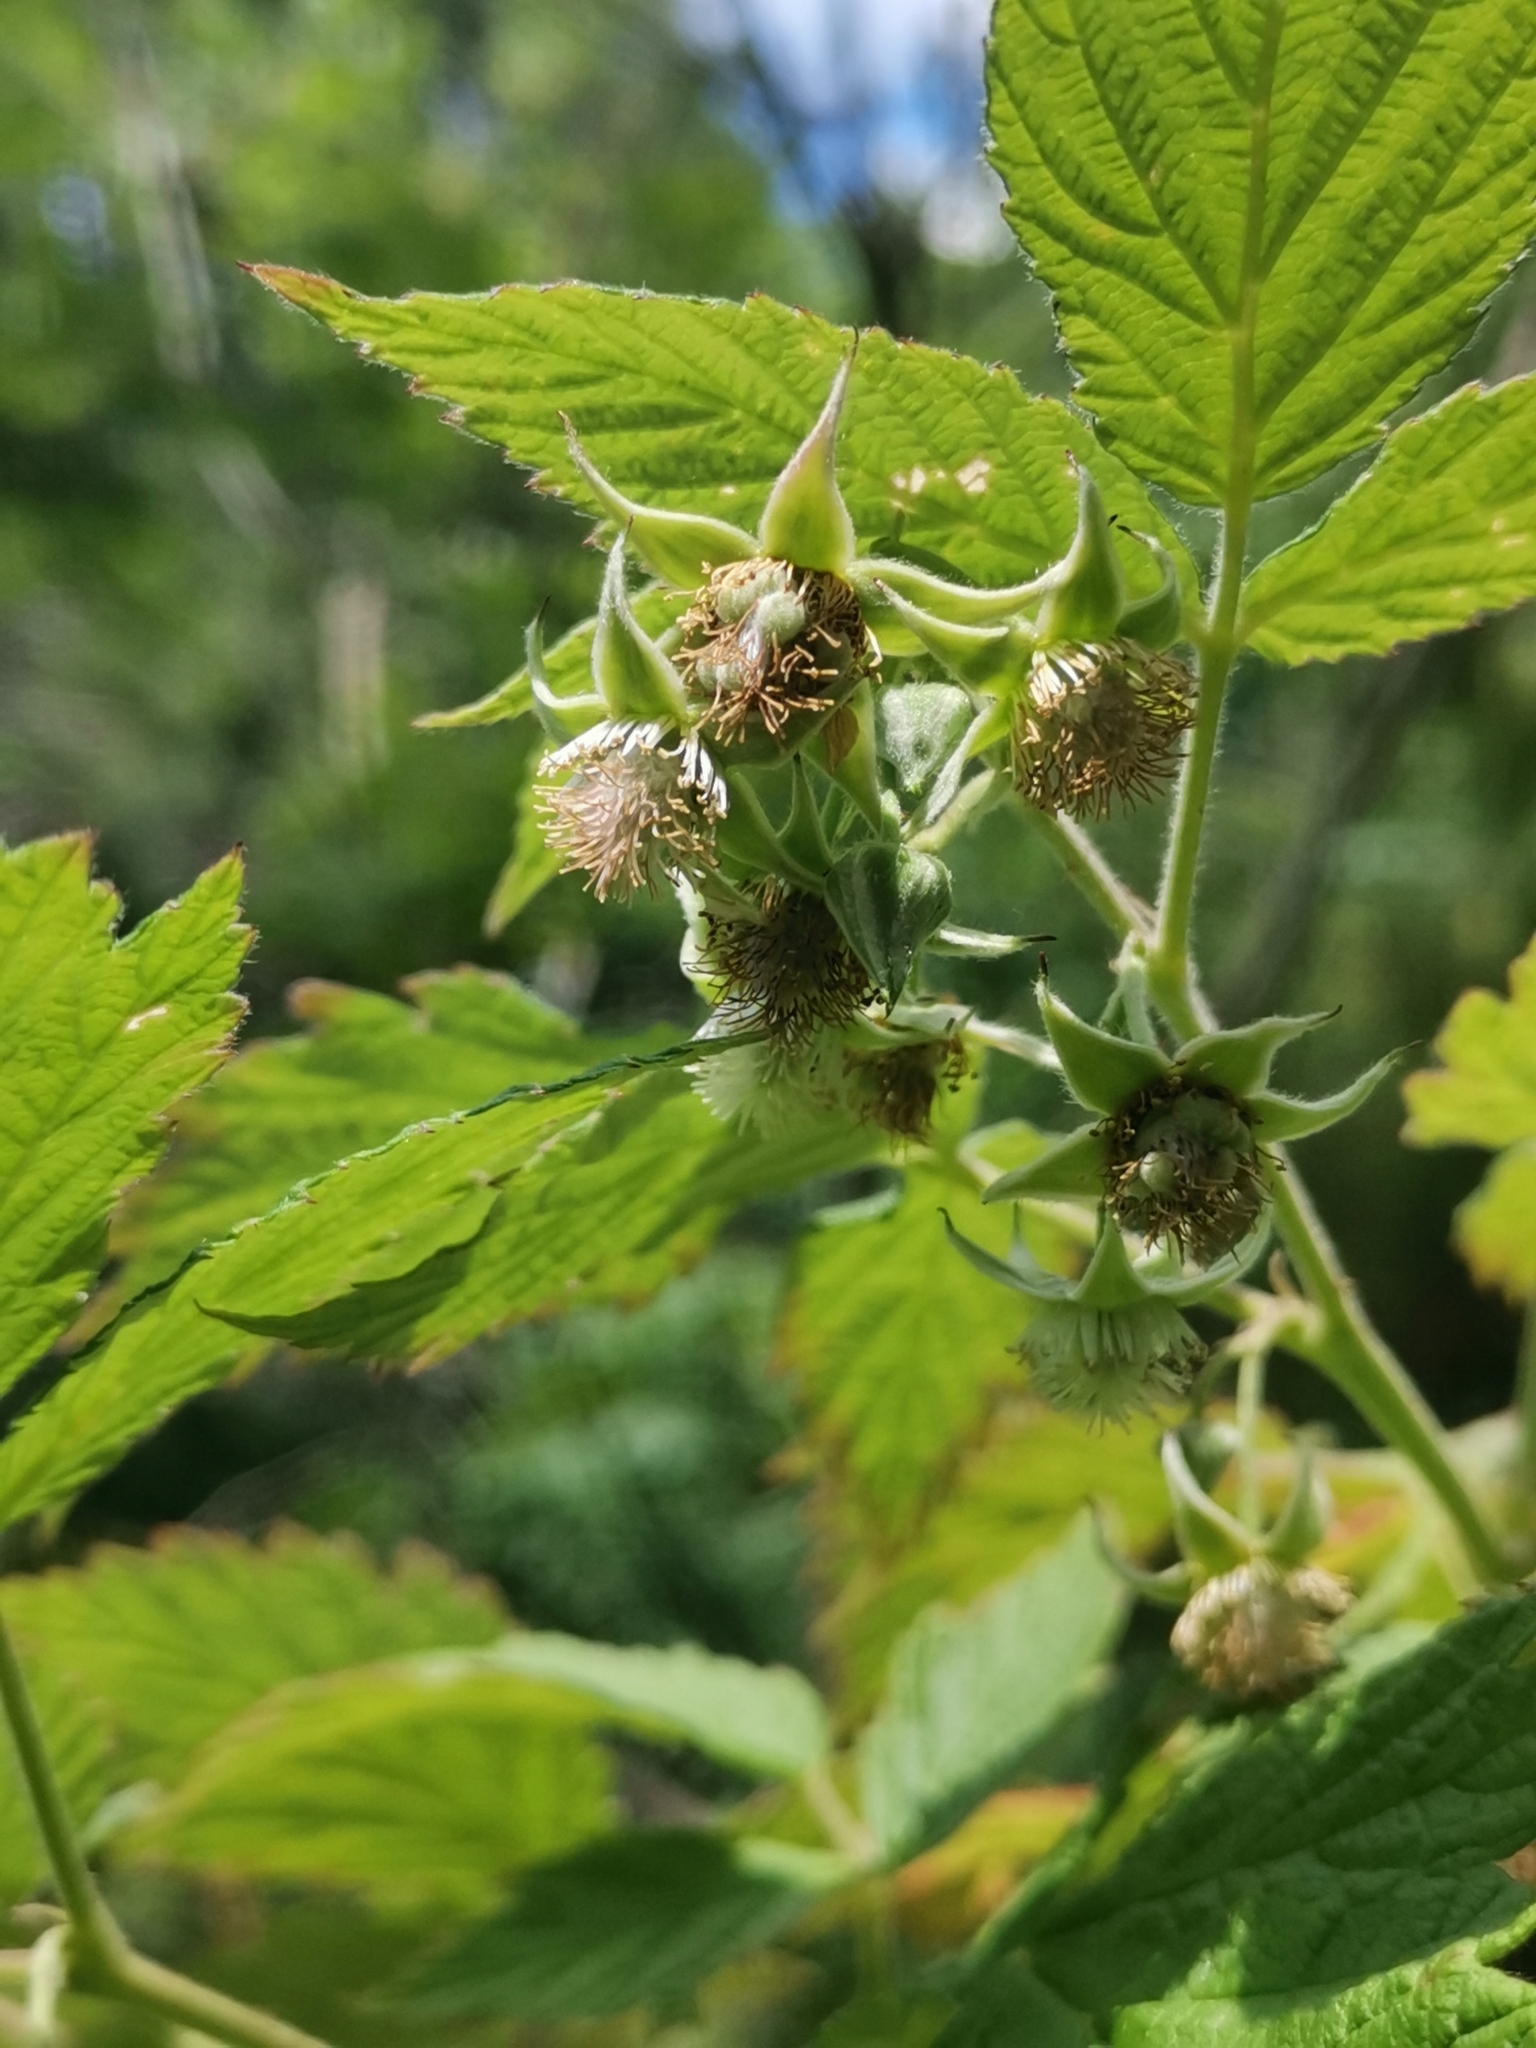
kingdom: Plantae
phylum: Tracheophyta
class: Magnoliopsida
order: Rosales
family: Rosaceae
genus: Rubus
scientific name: Rubus idaeus
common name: Raspberry
